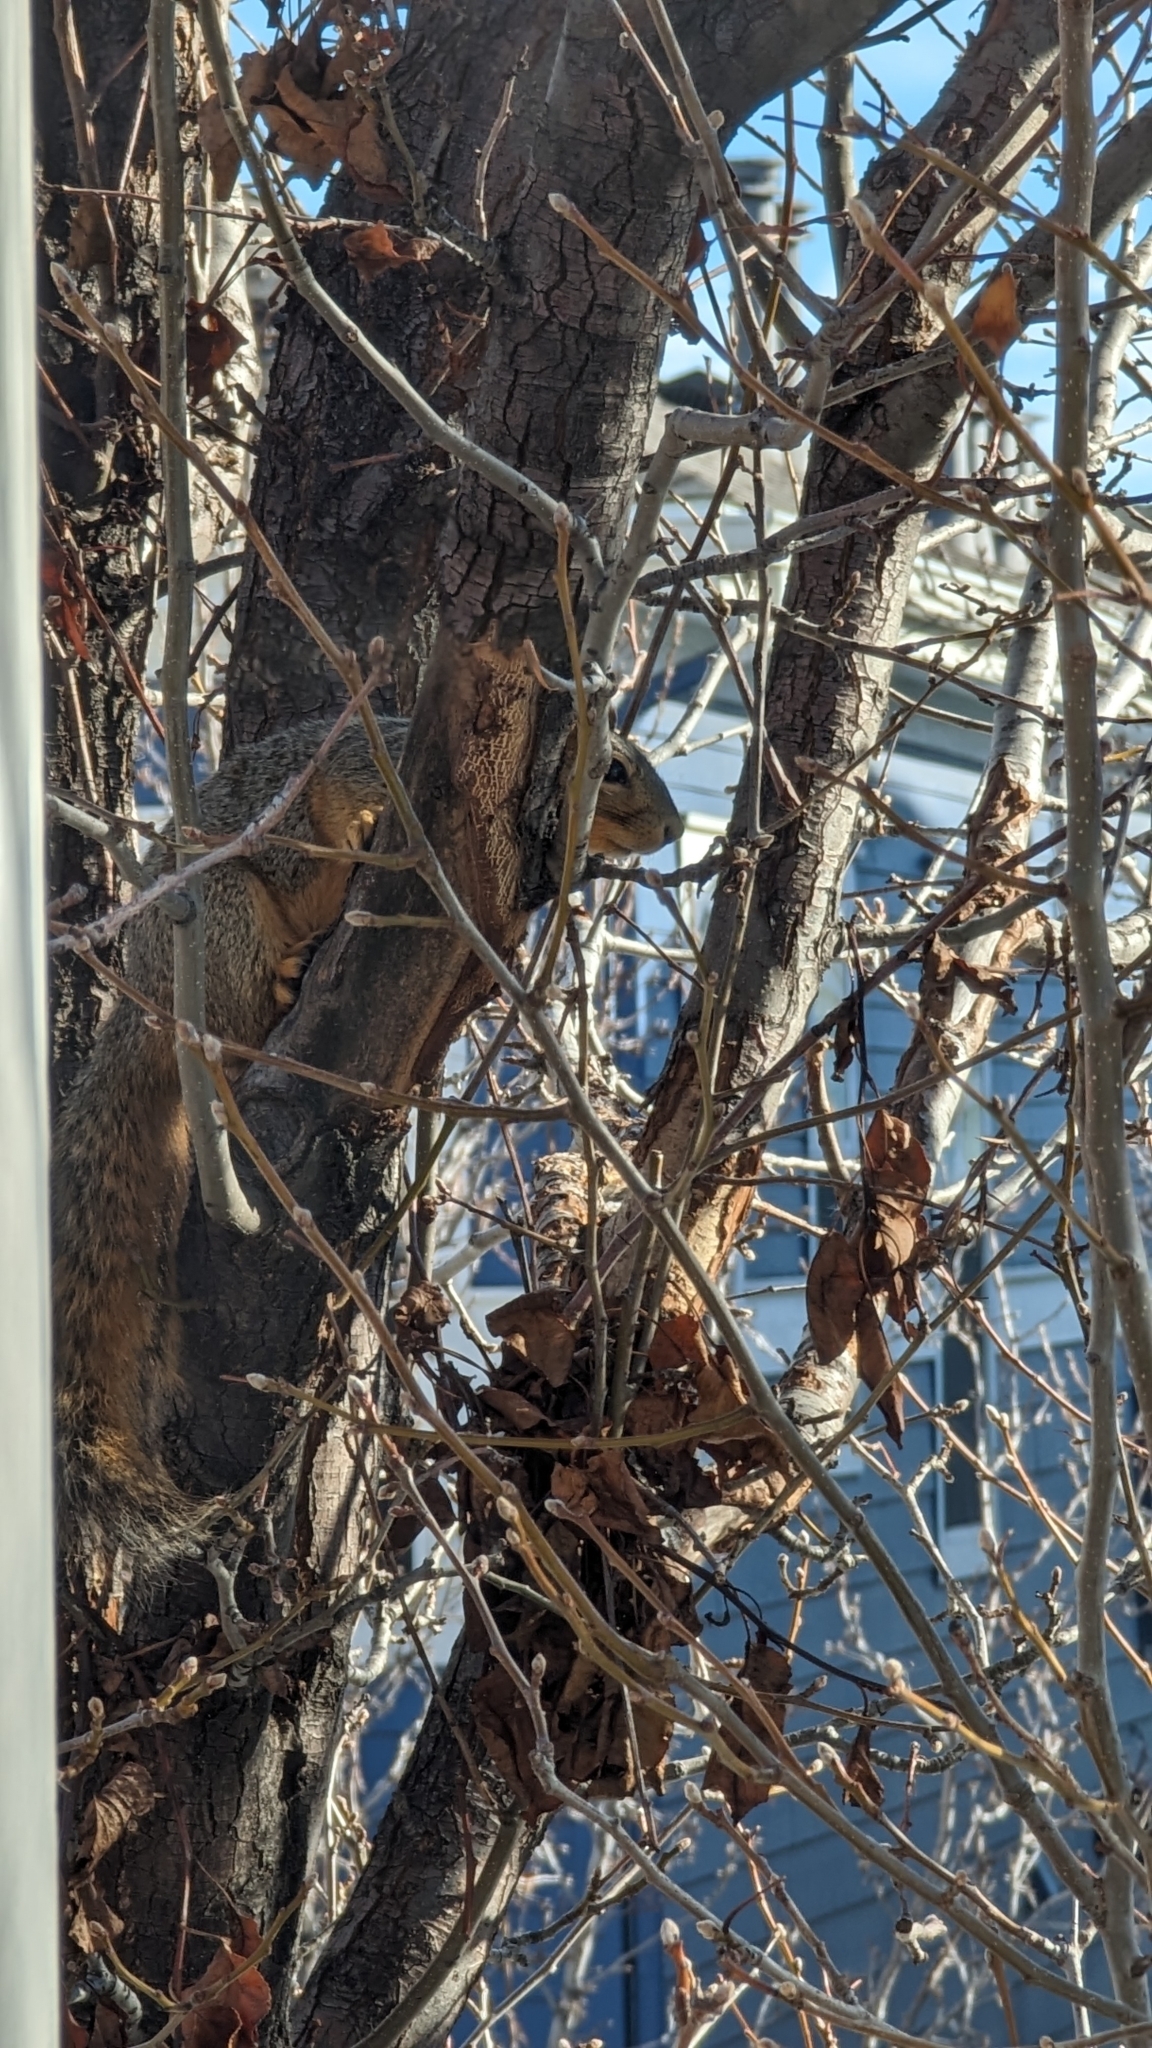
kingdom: Animalia
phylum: Chordata
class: Mammalia
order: Rodentia
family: Sciuridae
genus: Sciurus
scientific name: Sciurus niger
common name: Fox squirrel
